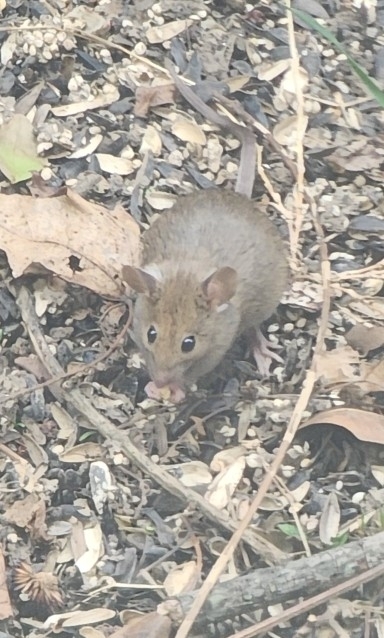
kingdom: Animalia
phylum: Chordata
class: Mammalia
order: Rodentia
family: Muridae
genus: Mus
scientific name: Mus musculus
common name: House mouse
